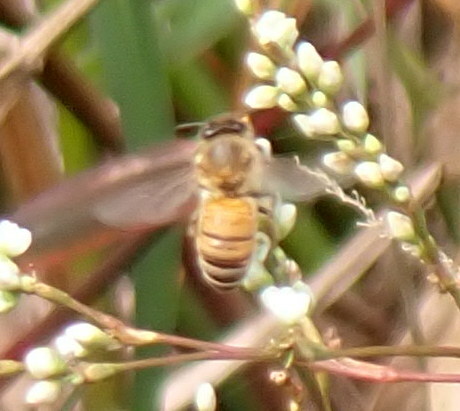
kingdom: Animalia
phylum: Arthropoda
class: Insecta
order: Hymenoptera
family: Apidae
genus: Apis
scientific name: Apis mellifera
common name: Honey bee
